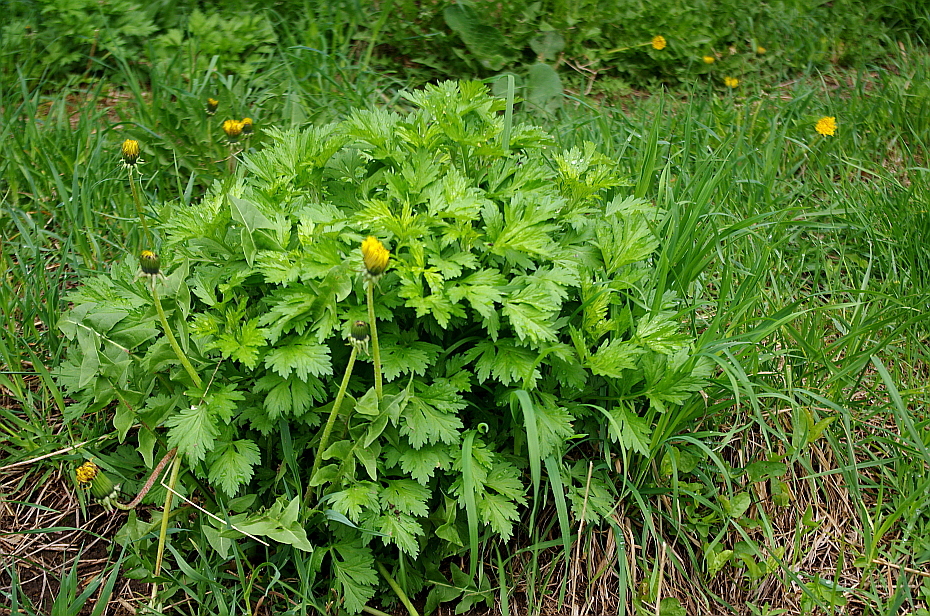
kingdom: Plantae
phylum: Tracheophyta
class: Magnoliopsida
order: Asterales
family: Asteraceae
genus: Artemisia
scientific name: Artemisia vulgaris
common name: Mugwort
